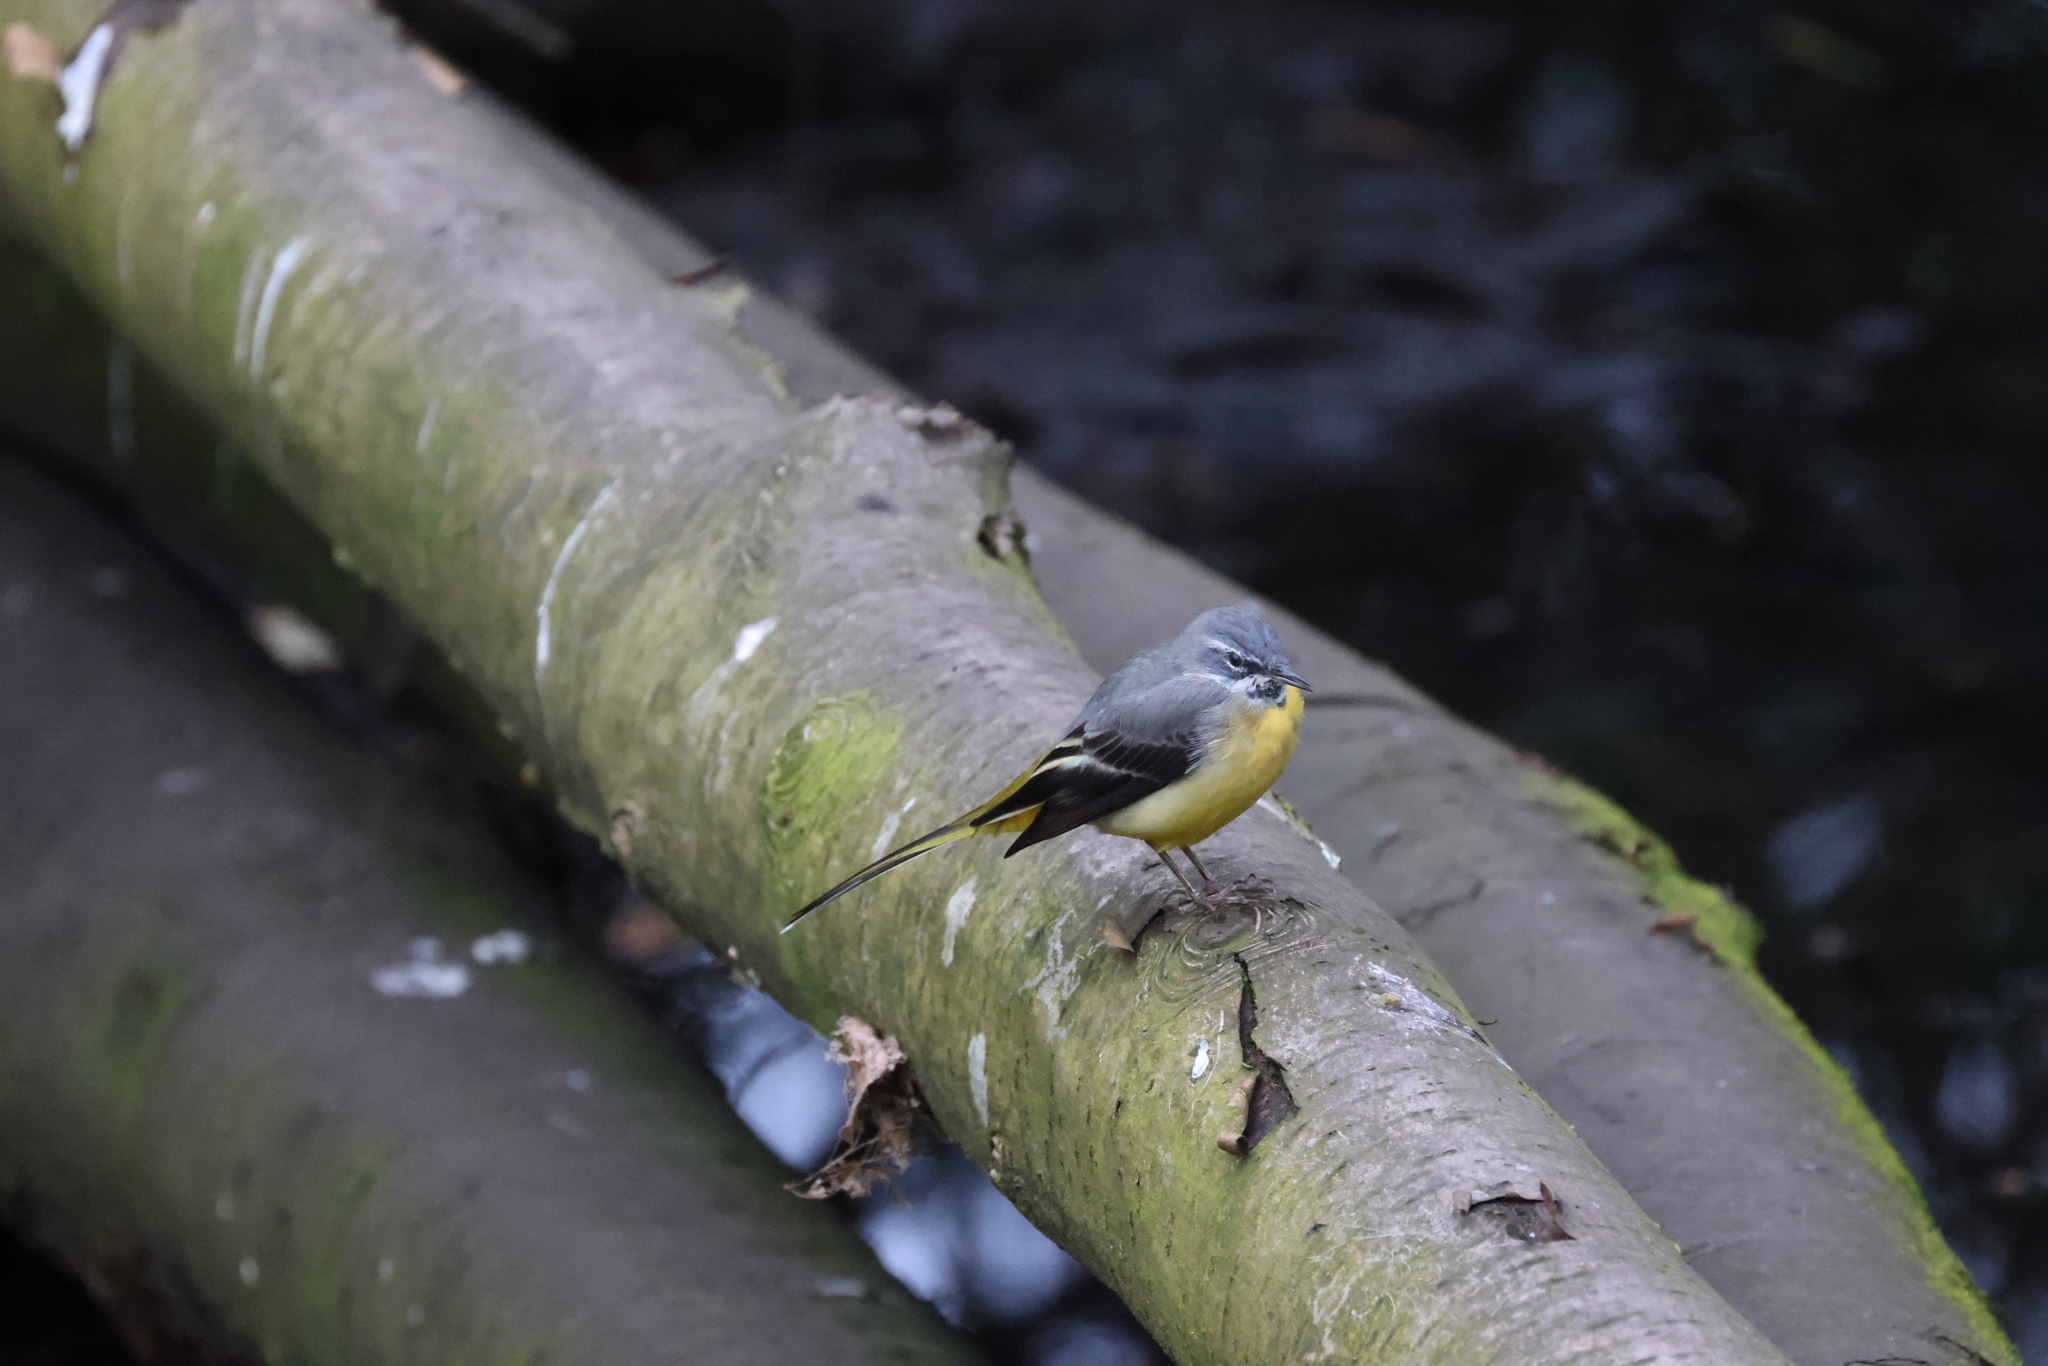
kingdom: Animalia
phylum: Chordata
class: Aves
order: Passeriformes
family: Motacillidae
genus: Motacilla
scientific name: Motacilla cinerea
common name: Grey wagtail
